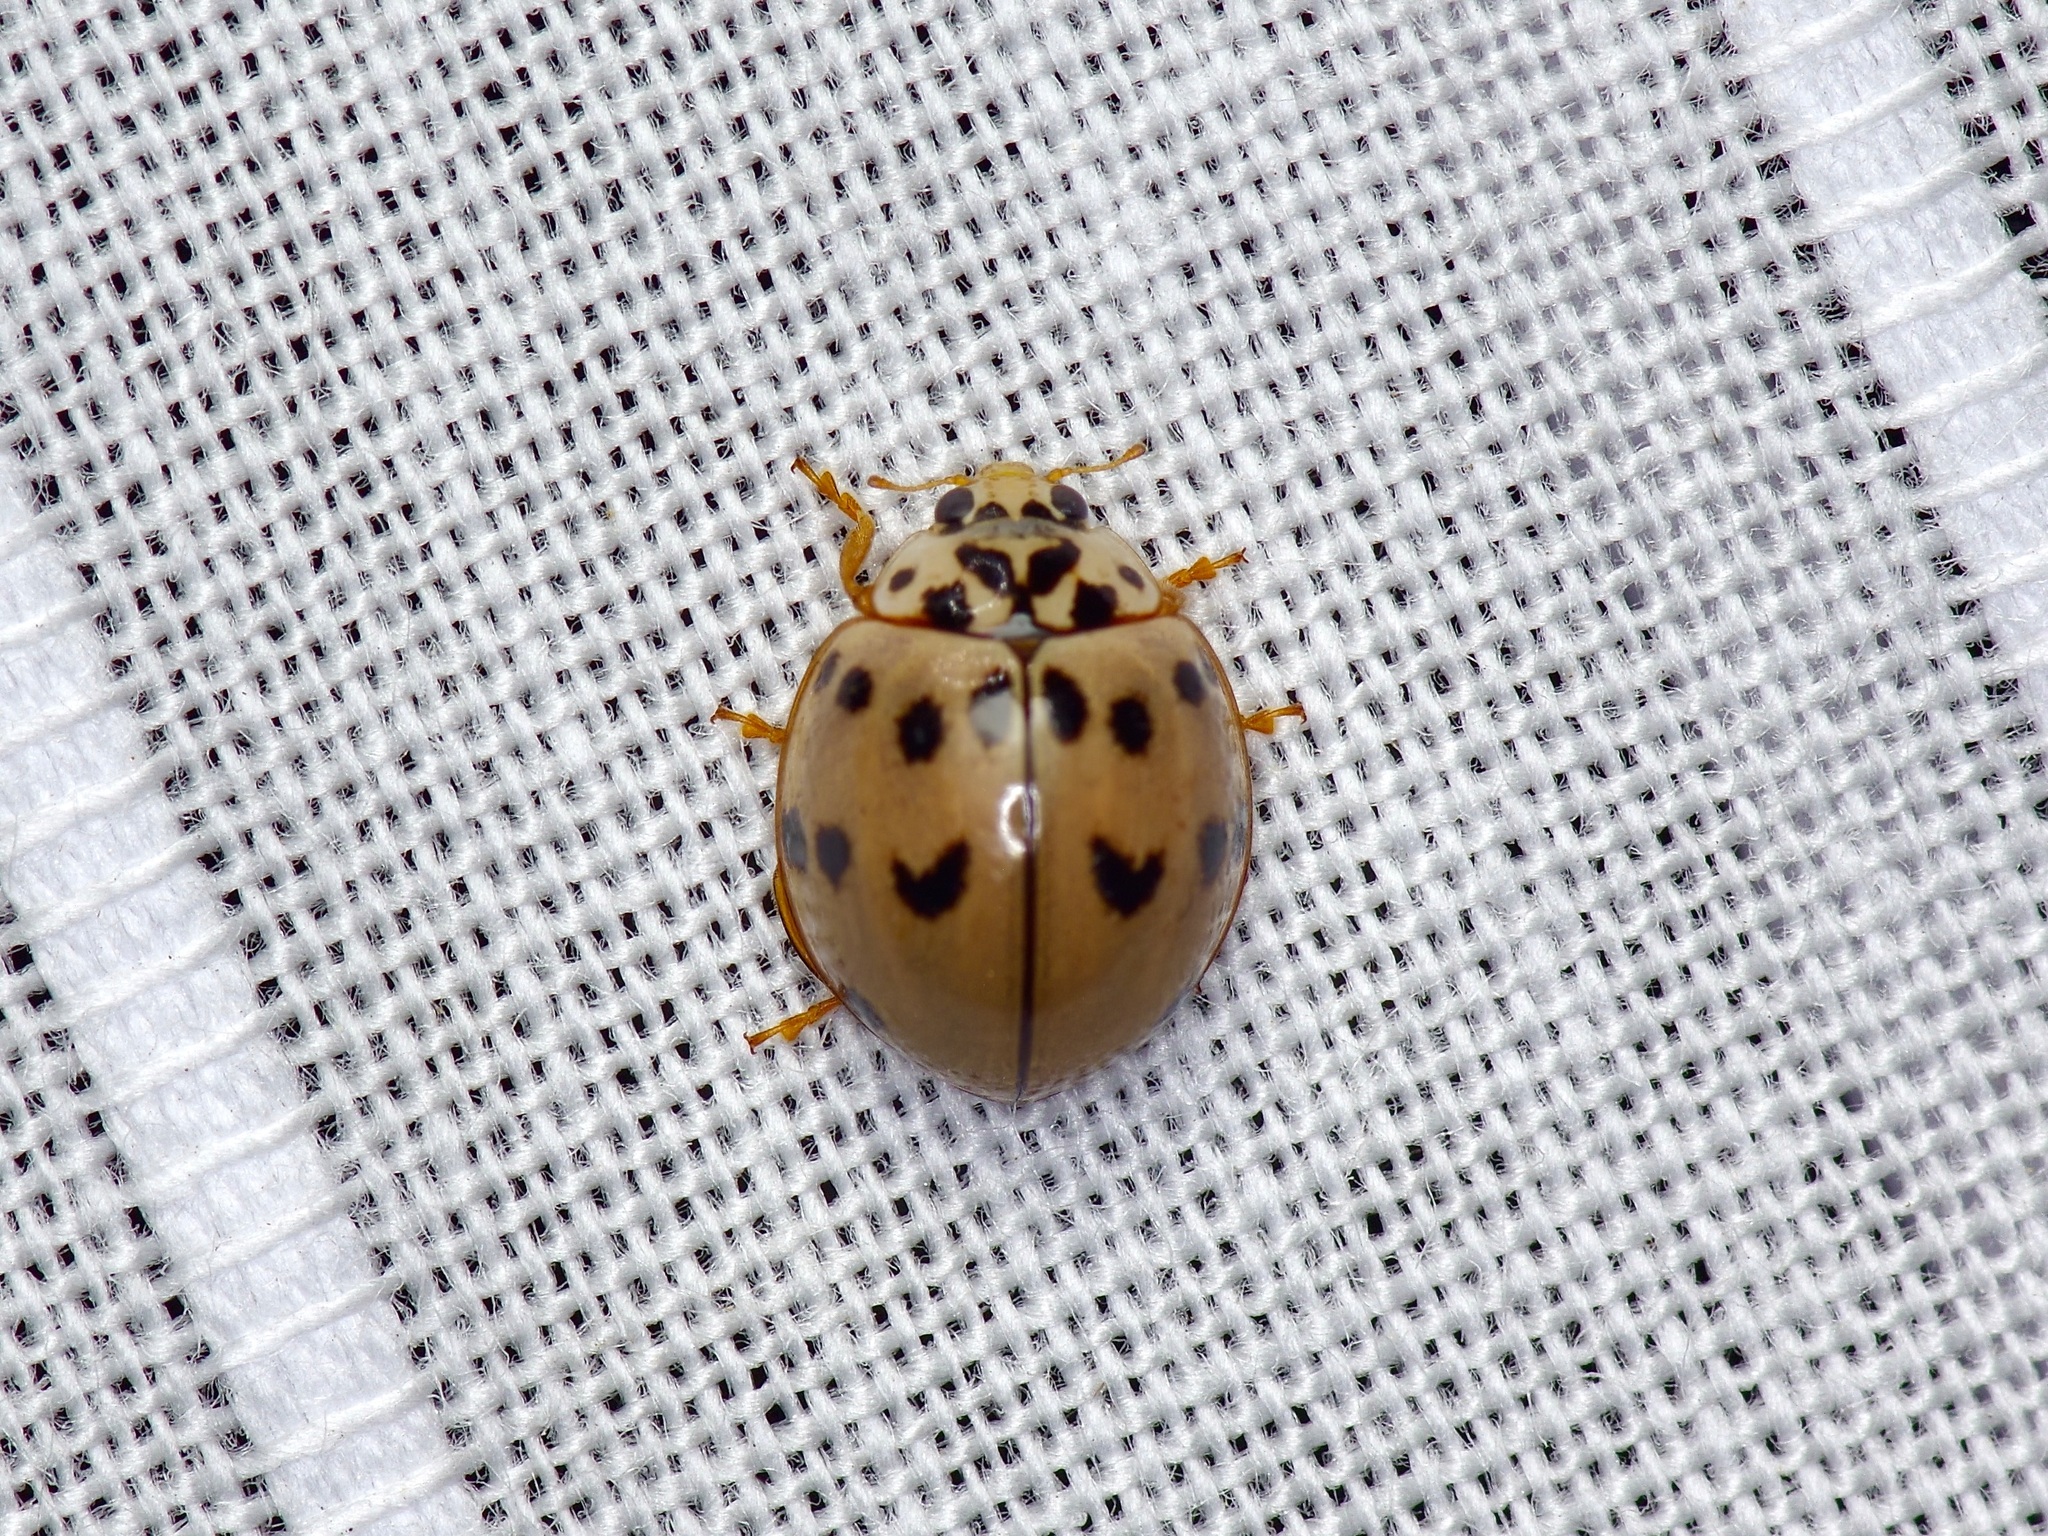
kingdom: Animalia
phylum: Arthropoda
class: Insecta
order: Coleoptera
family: Coccinellidae
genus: Olla
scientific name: Olla v-nigrum
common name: Ashy gray lady beetle
